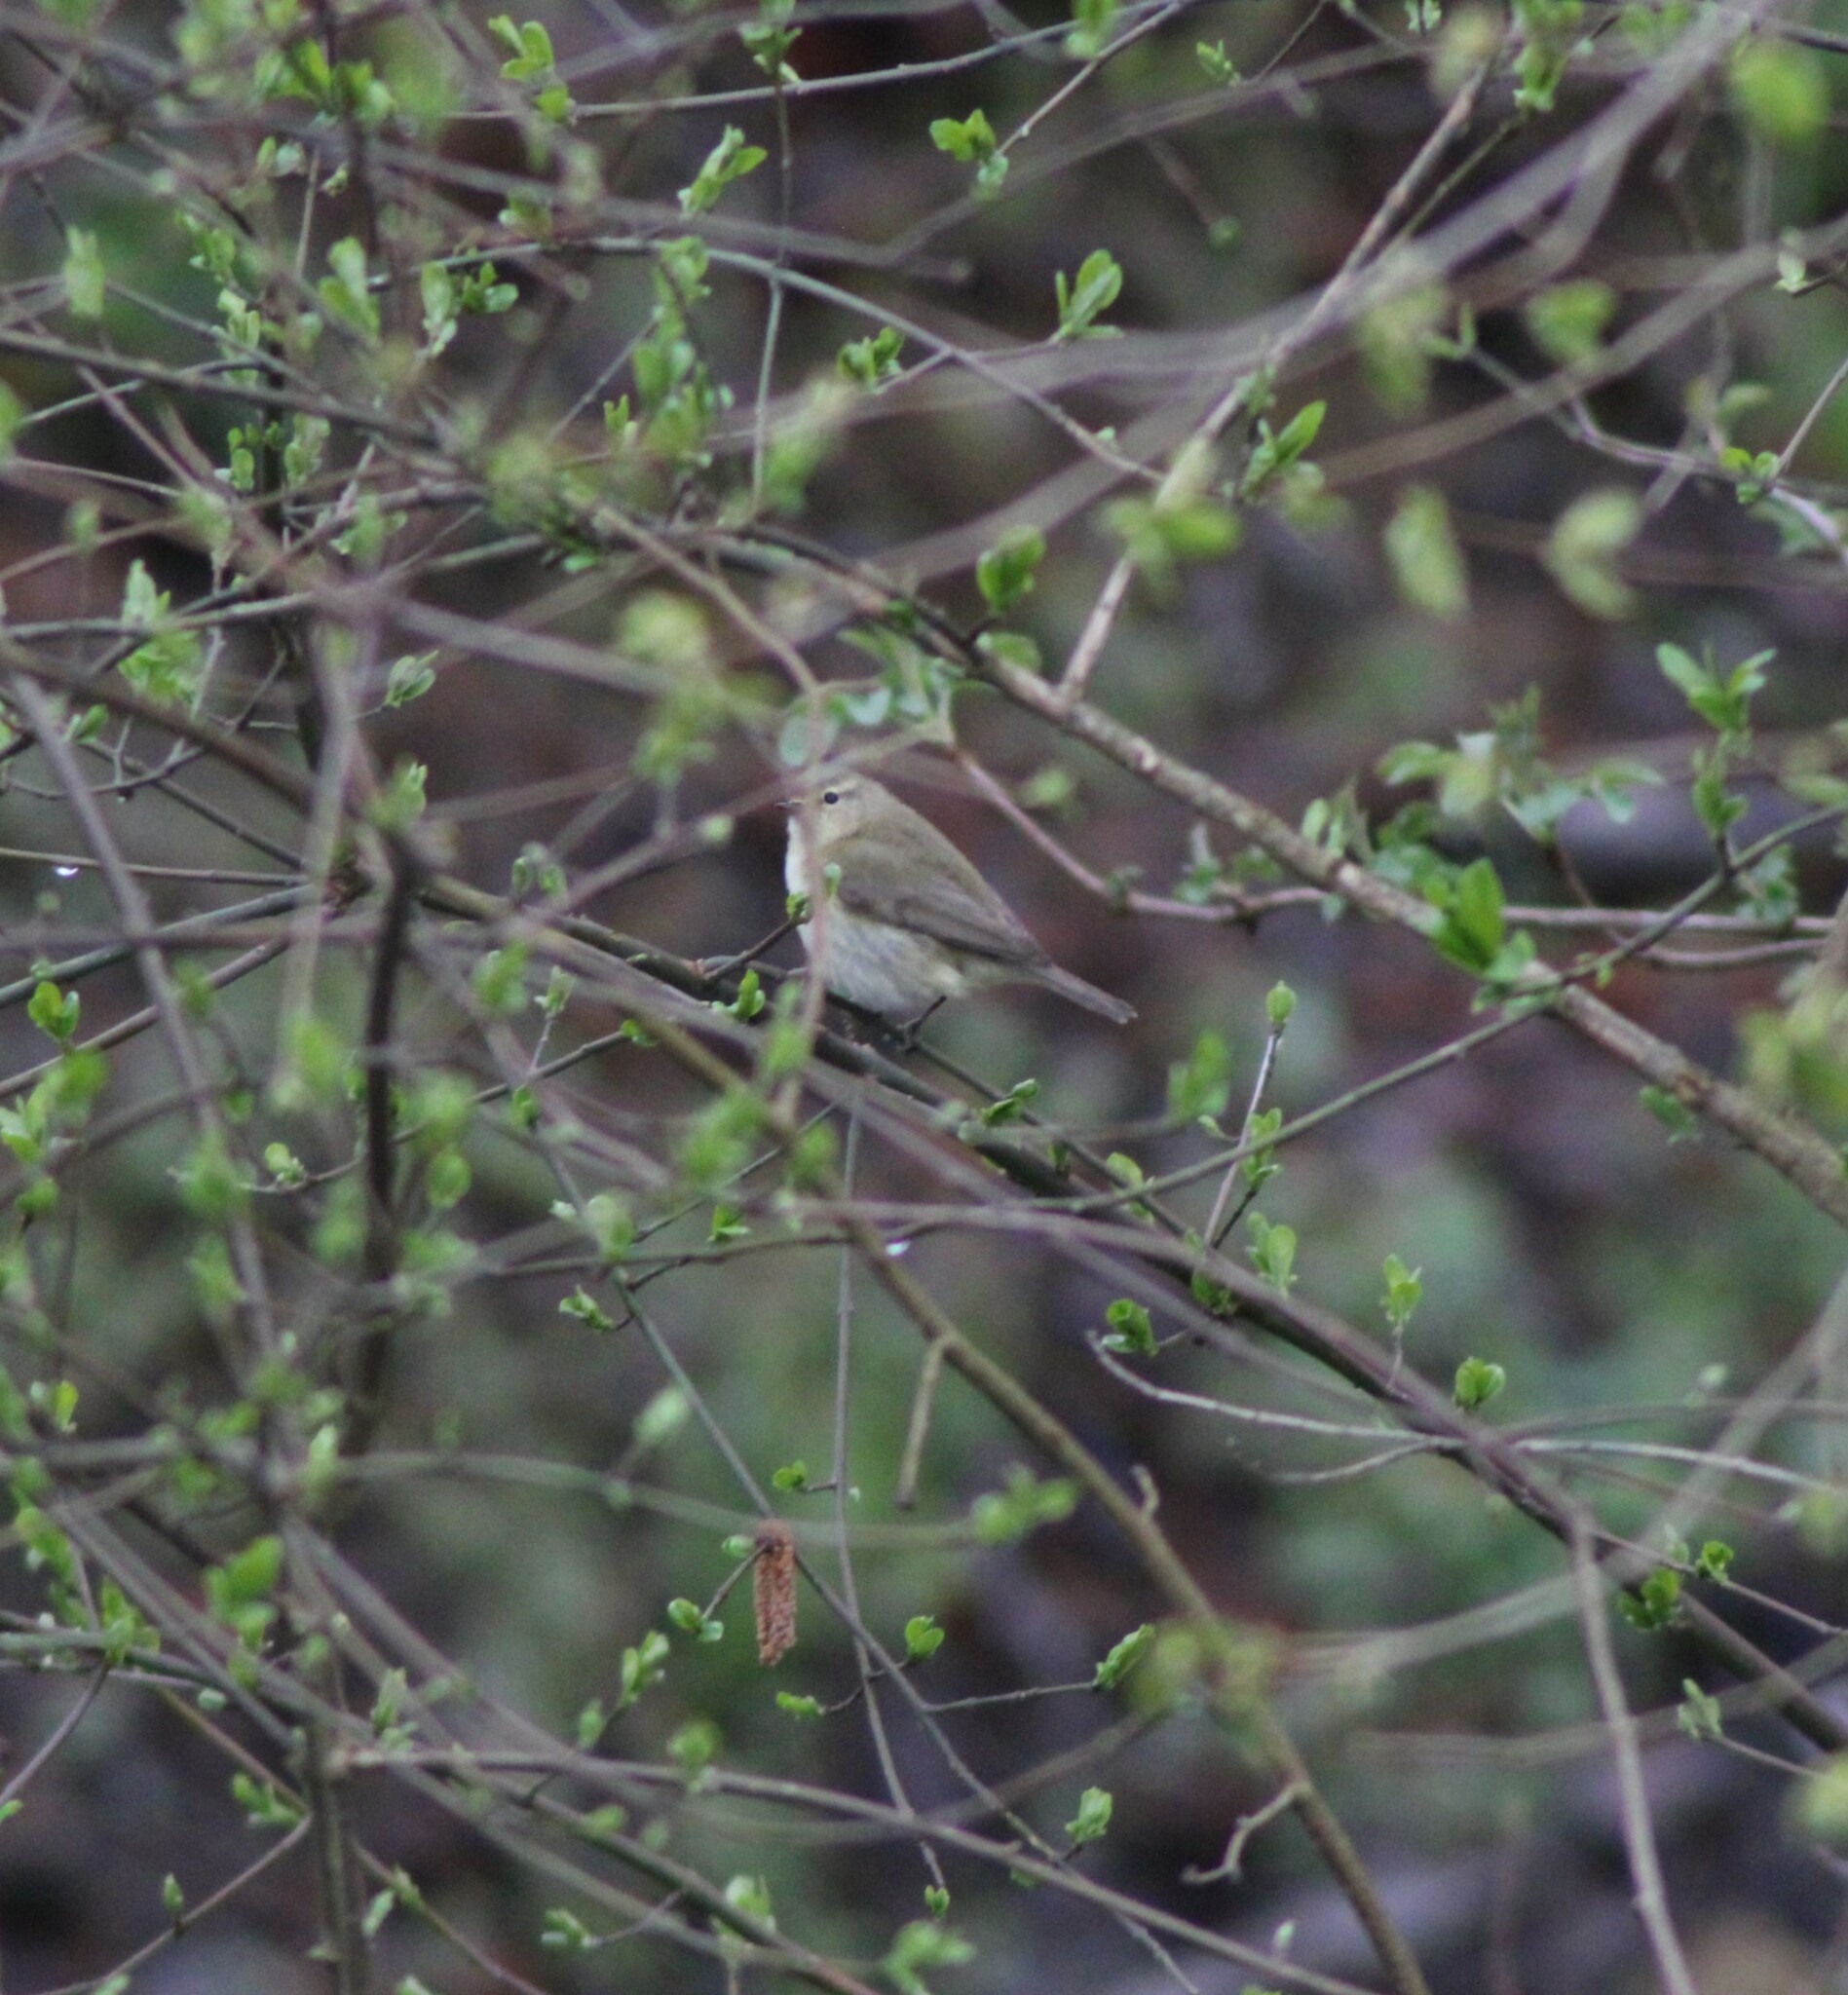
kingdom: Animalia
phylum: Chordata
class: Aves
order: Passeriformes
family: Phylloscopidae
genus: Phylloscopus
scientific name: Phylloscopus collybita
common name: Common chiffchaff
